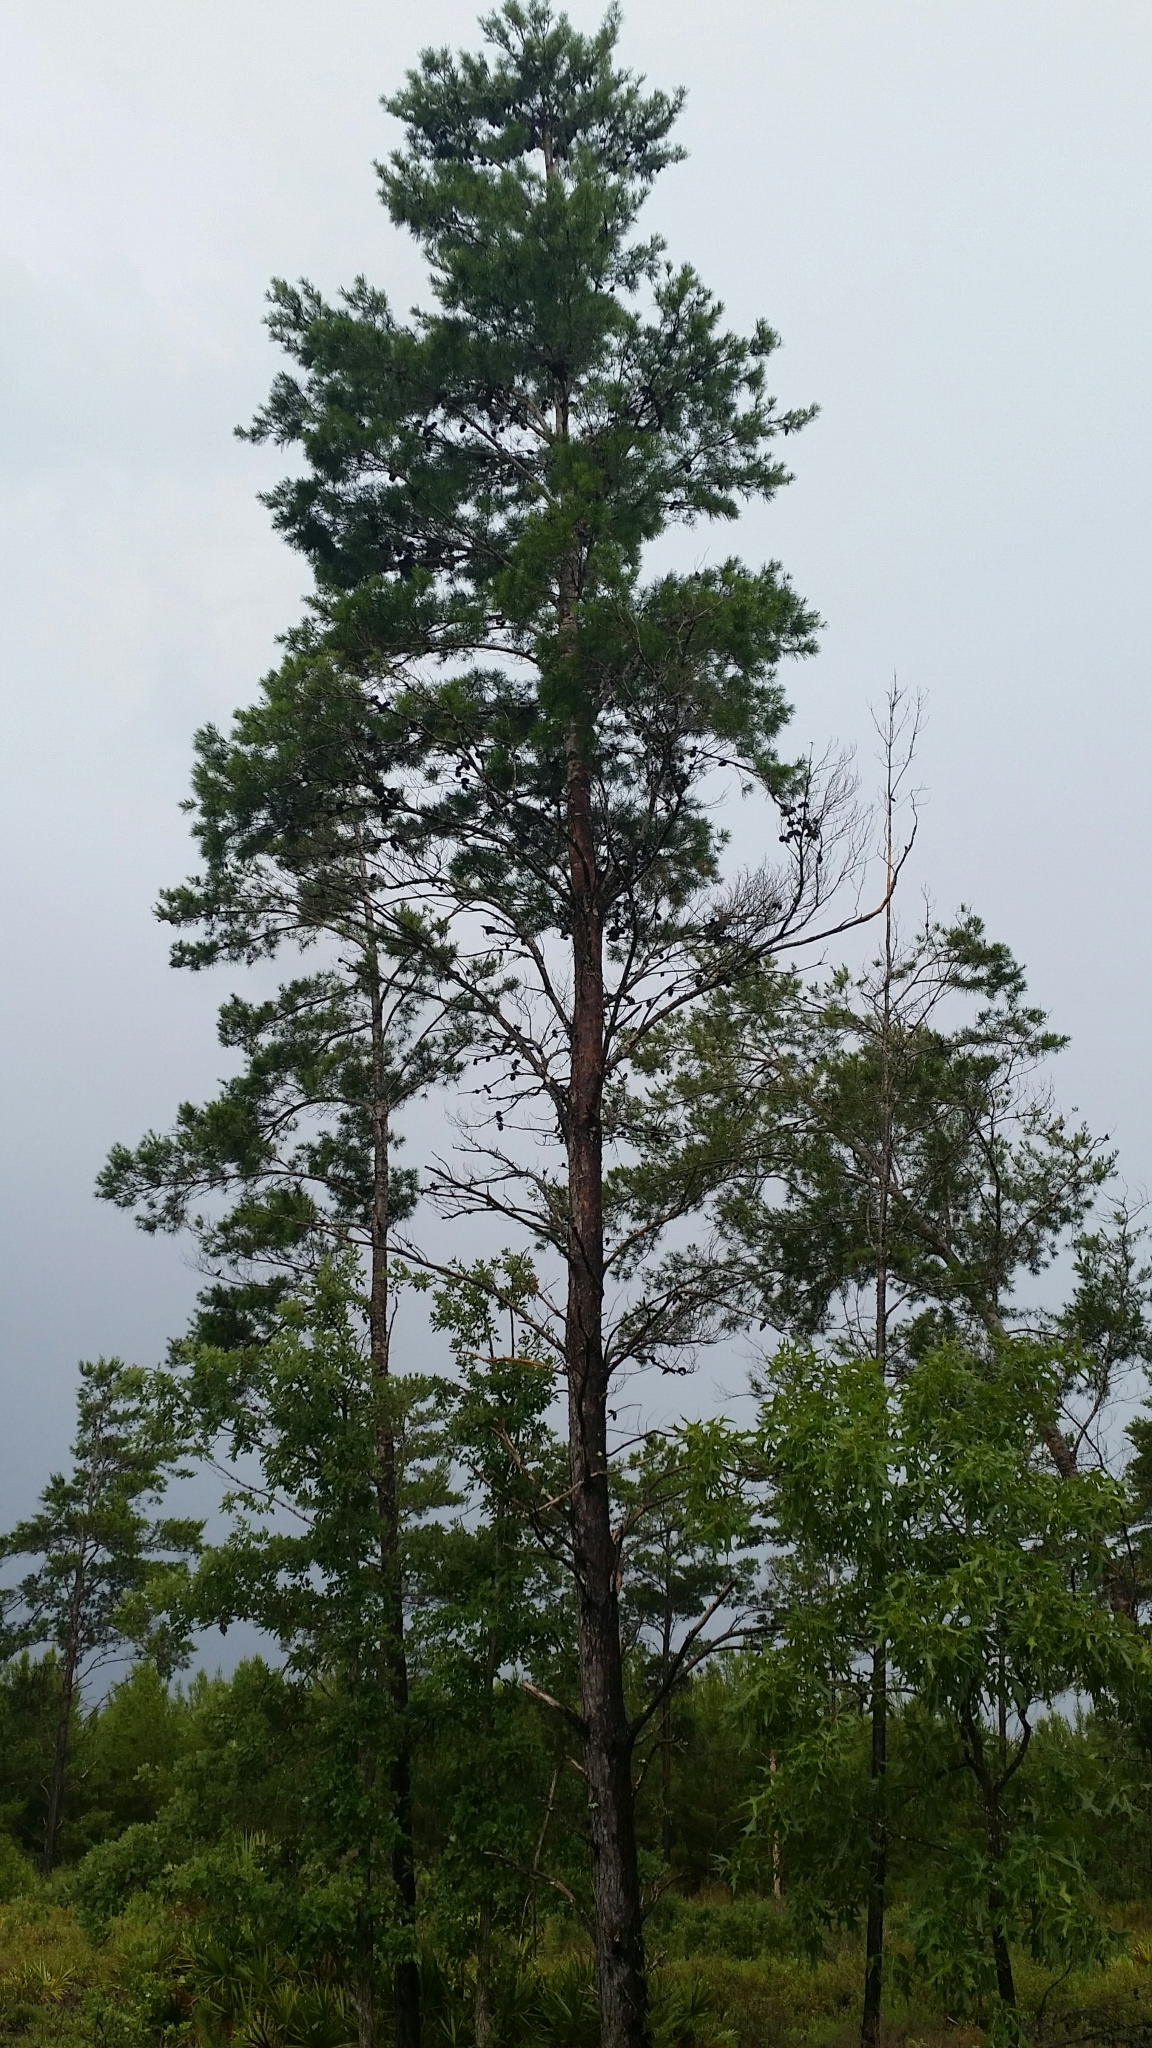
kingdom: Plantae
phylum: Tracheophyta
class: Pinopsida
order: Pinales
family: Pinaceae
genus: Pinus
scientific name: Pinus clausa
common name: Sand pine
